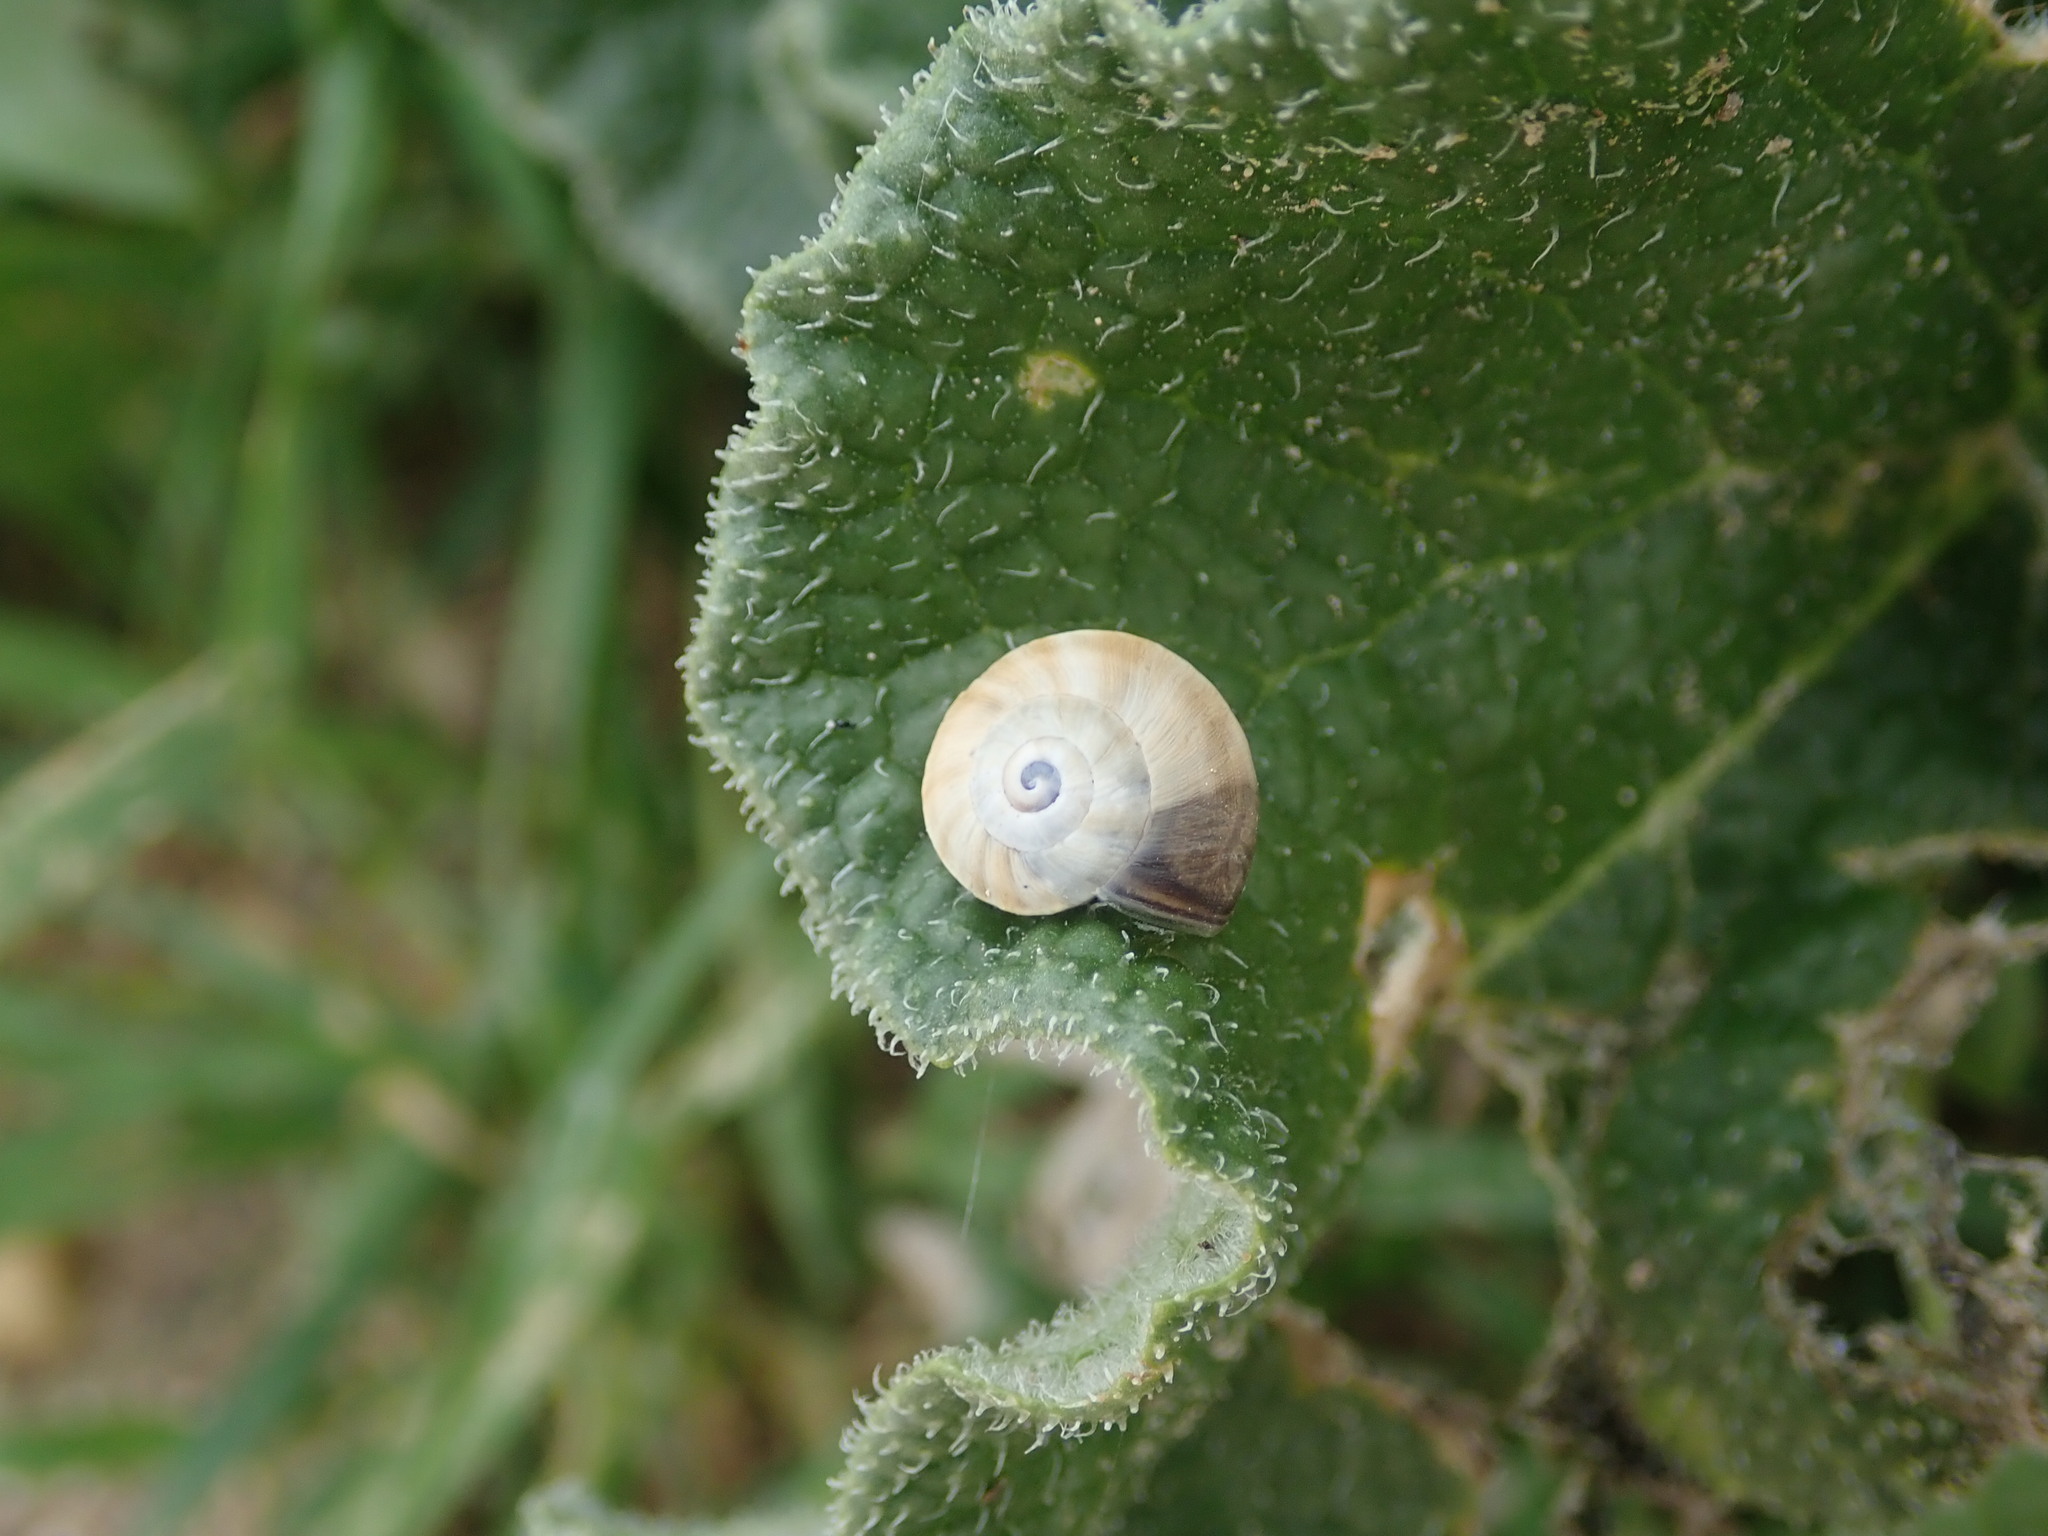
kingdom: Animalia
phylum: Mollusca
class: Gastropoda
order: Stylommatophora
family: Helicidae
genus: Theba
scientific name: Theba pisana
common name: White snail
